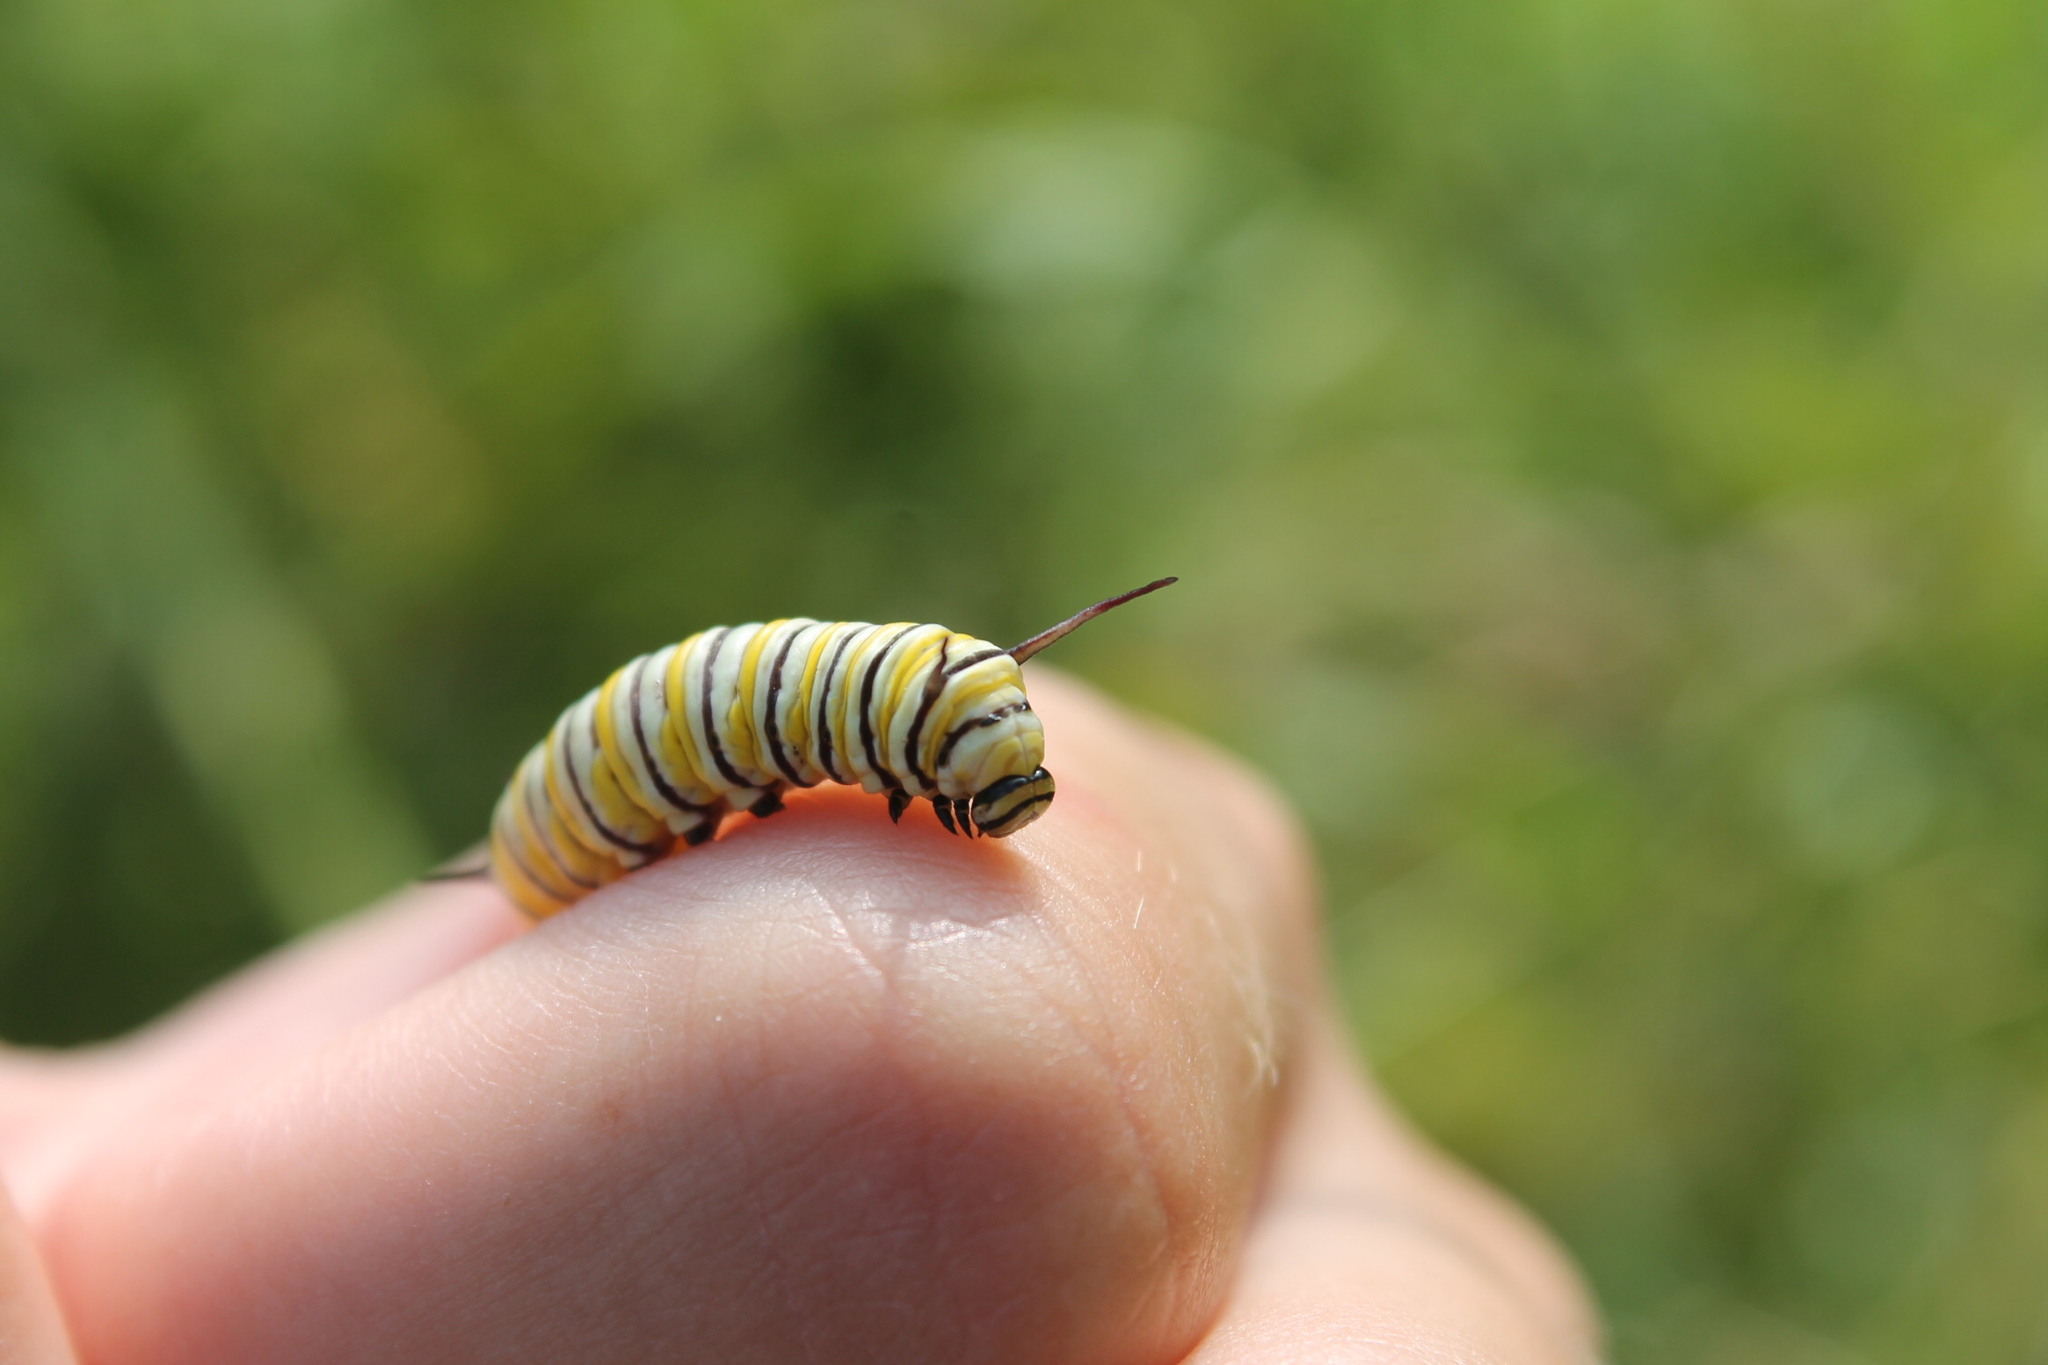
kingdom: Animalia
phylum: Arthropoda
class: Insecta
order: Lepidoptera
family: Nymphalidae
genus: Danaus
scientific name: Danaus plexippus
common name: Monarch
